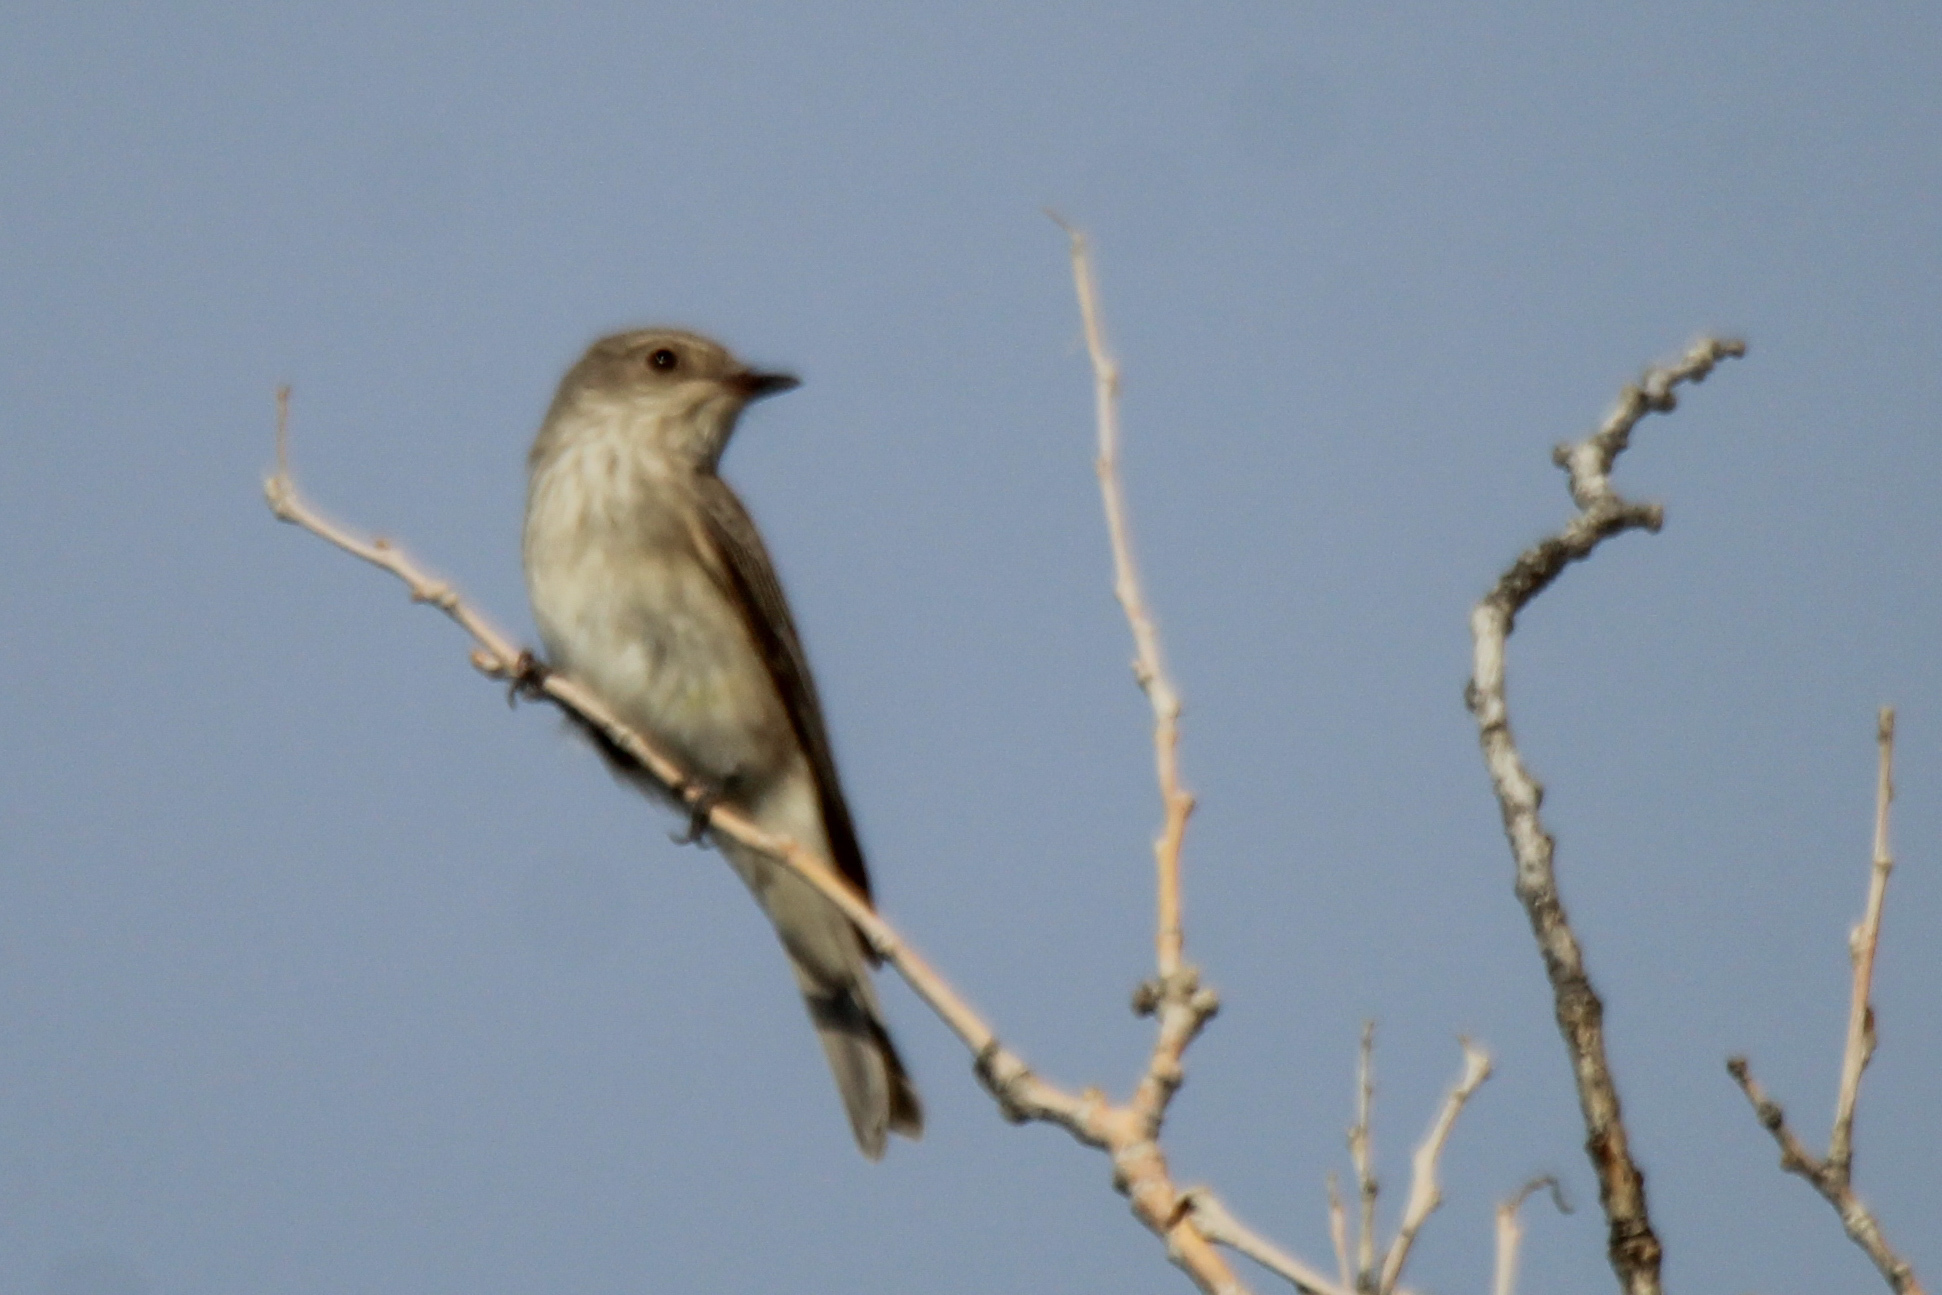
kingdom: Animalia
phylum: Chordata
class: Aves
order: Passeriformes
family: Muscicapidae
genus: Muscicapa
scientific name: Muscicapa striata
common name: Spotted flycatcher
